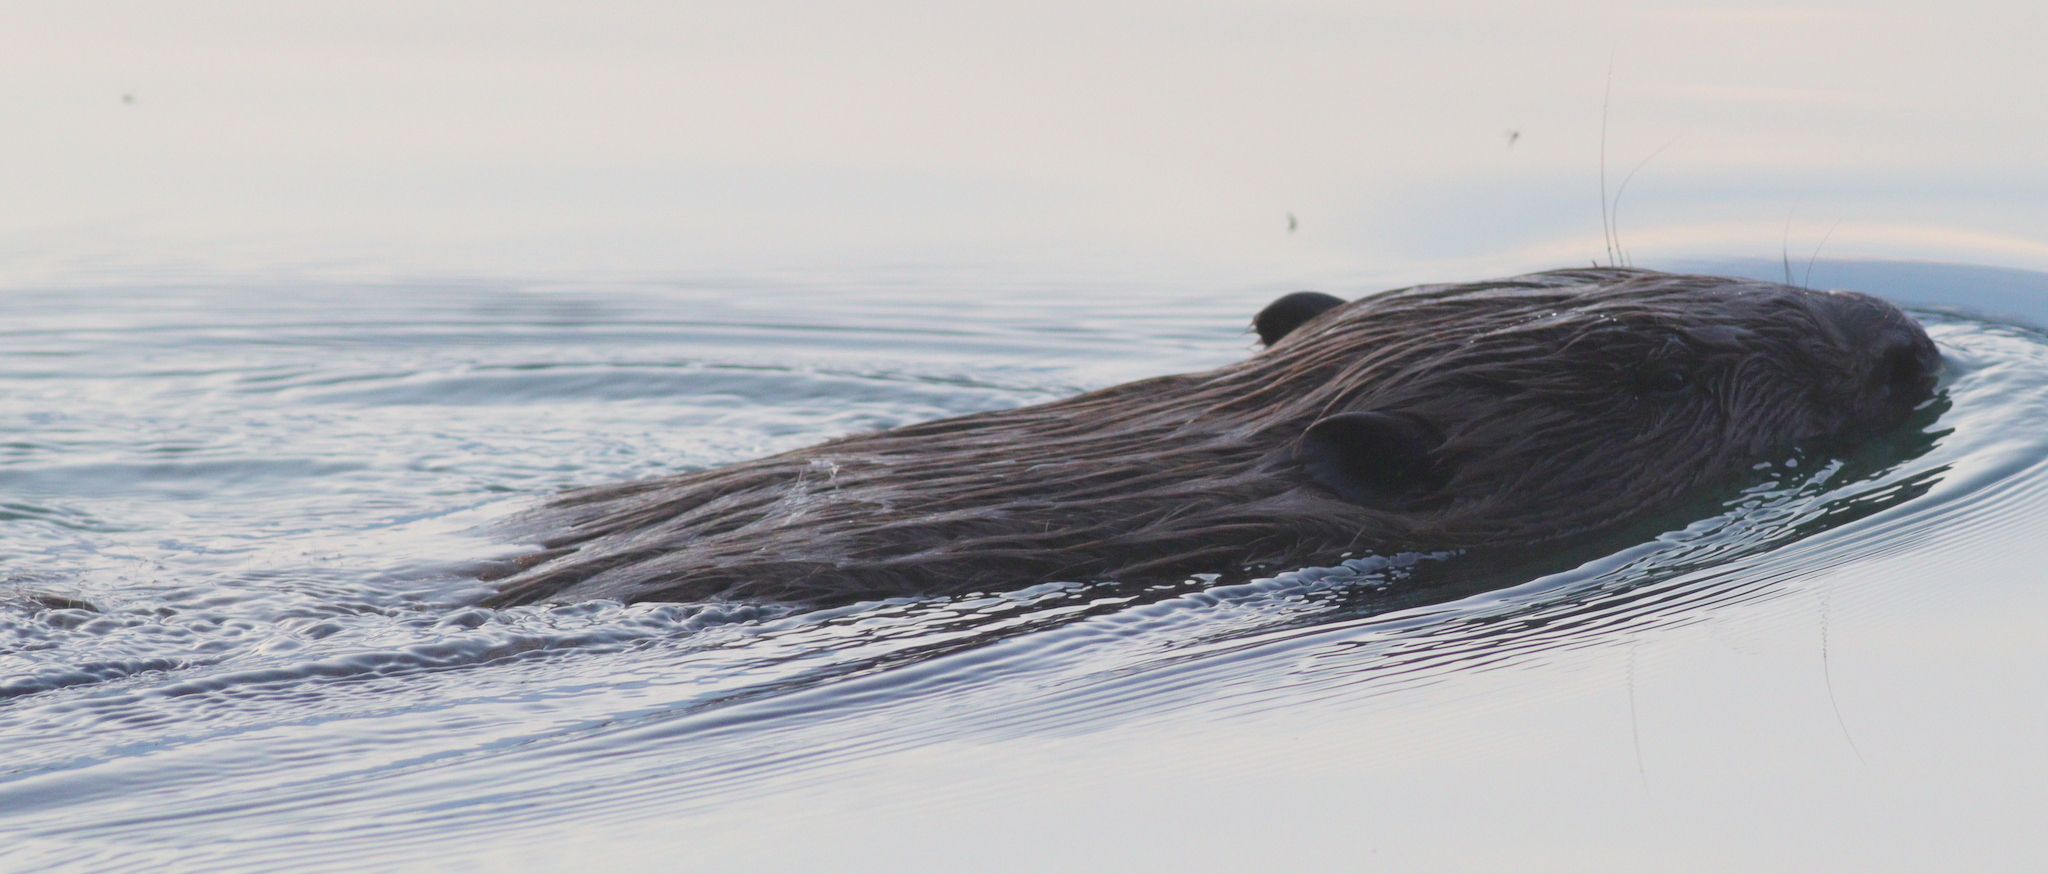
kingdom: Animalia
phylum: Chordata
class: Mammalia
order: Rodentia
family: Castoridae
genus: Castor
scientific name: Castor fiber
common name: Eurasian beaver
